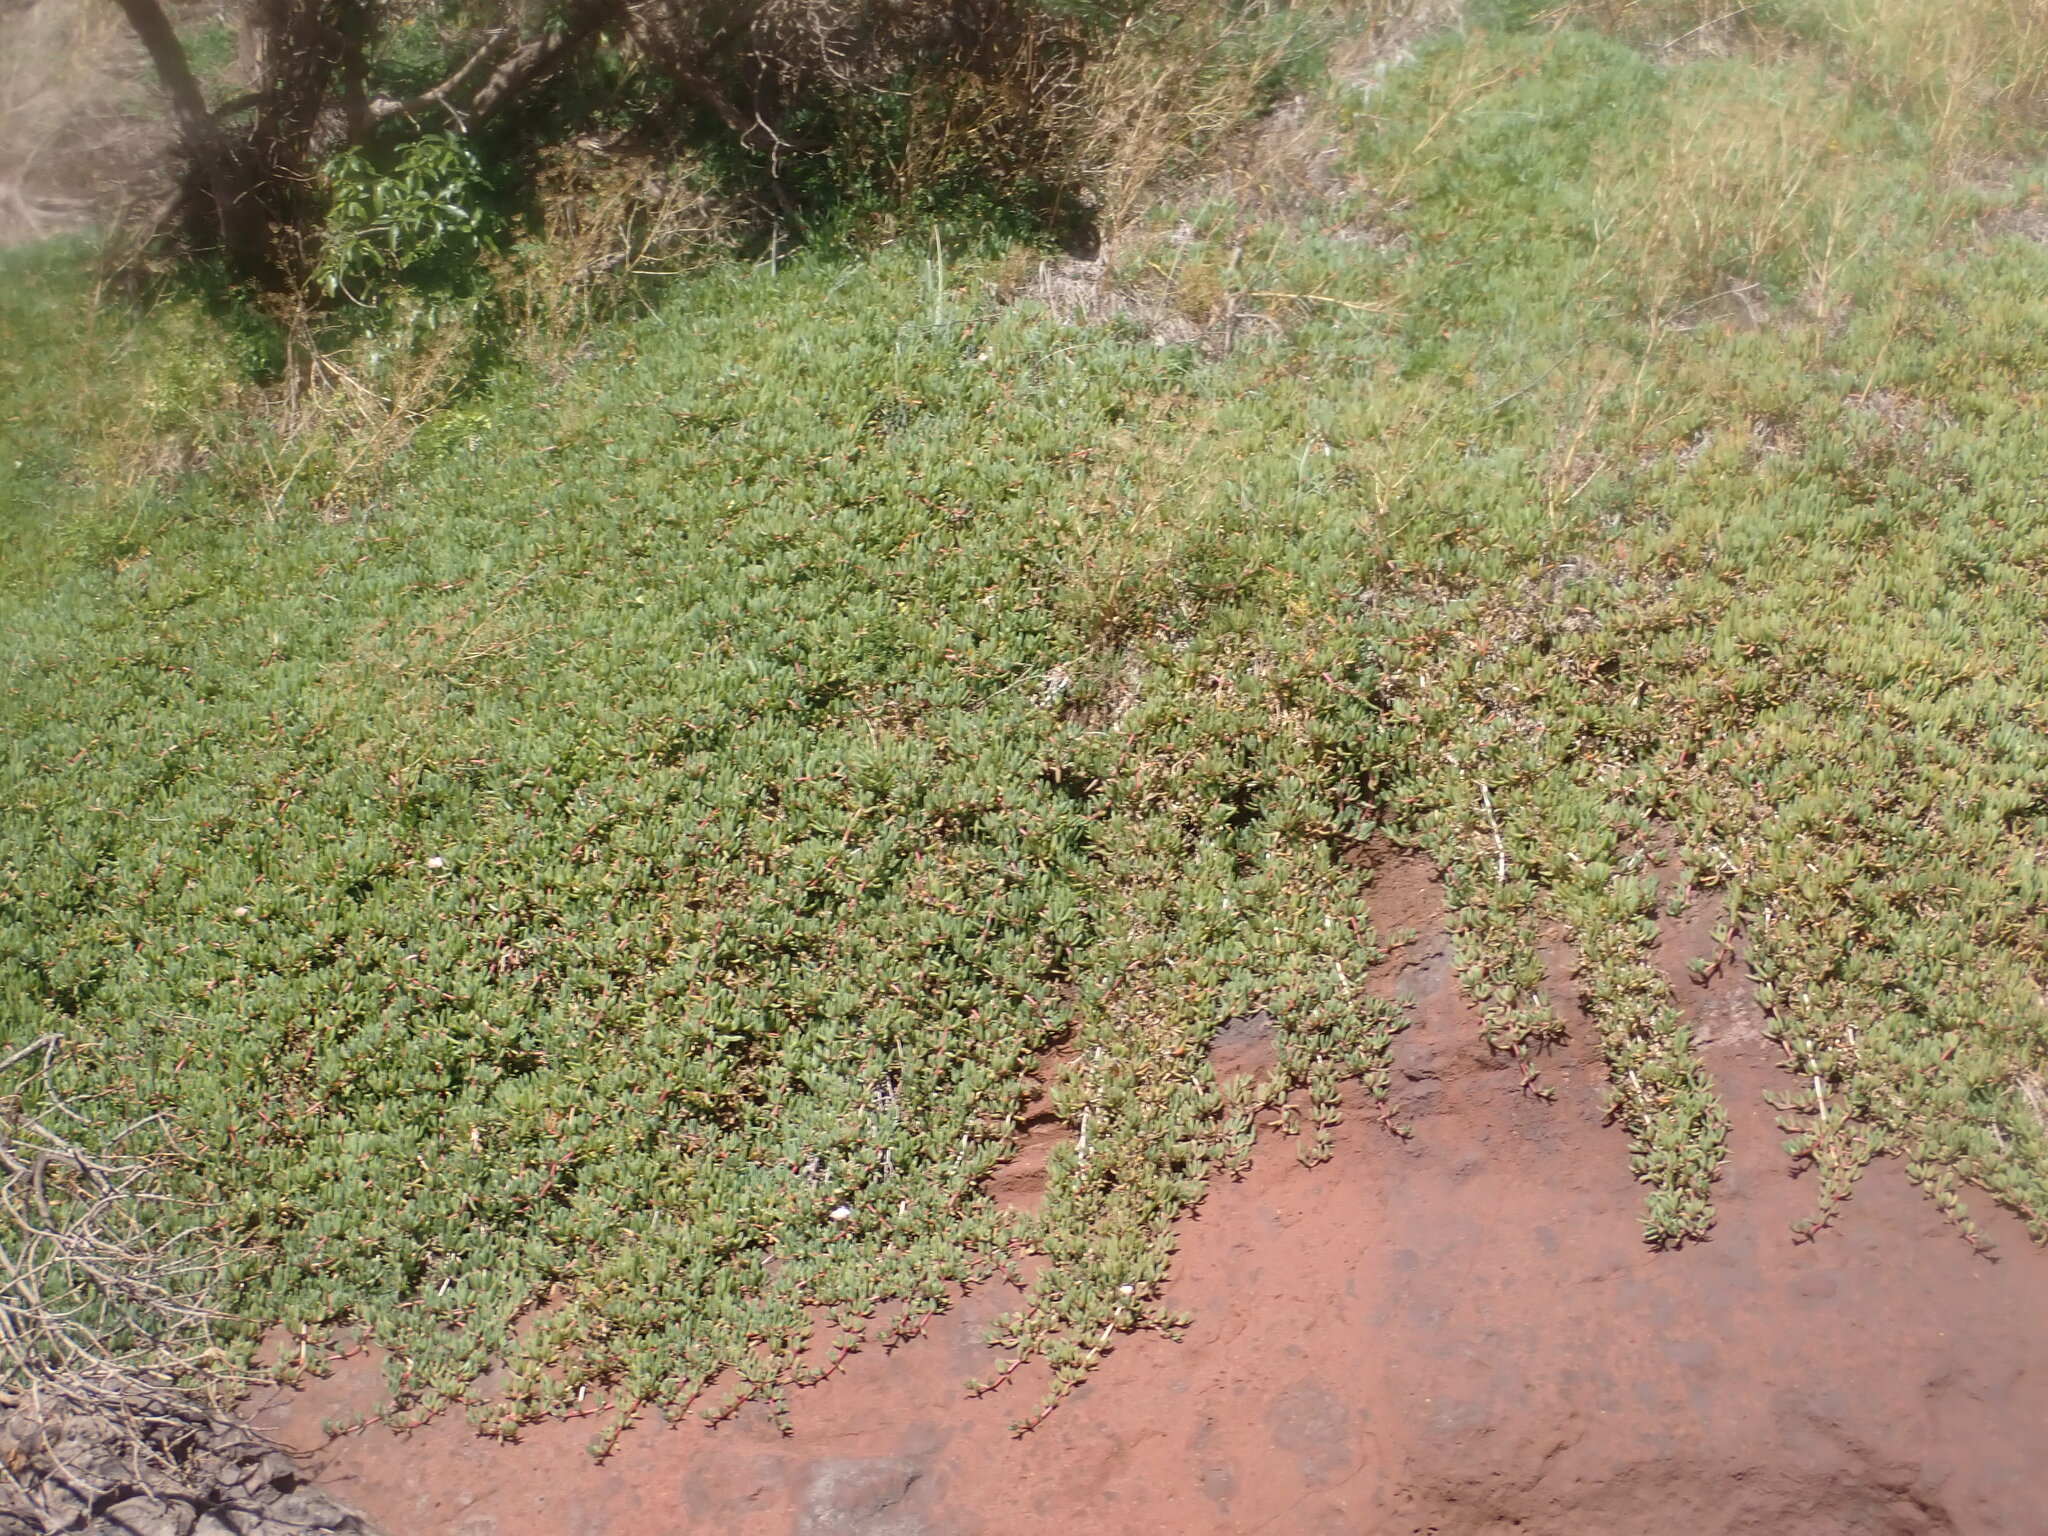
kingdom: Plantae
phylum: Tracheophyta
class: Magnoliopsida
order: Caryophyllales
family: Aizoaceae
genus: Disphyma
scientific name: Disphyma australe
